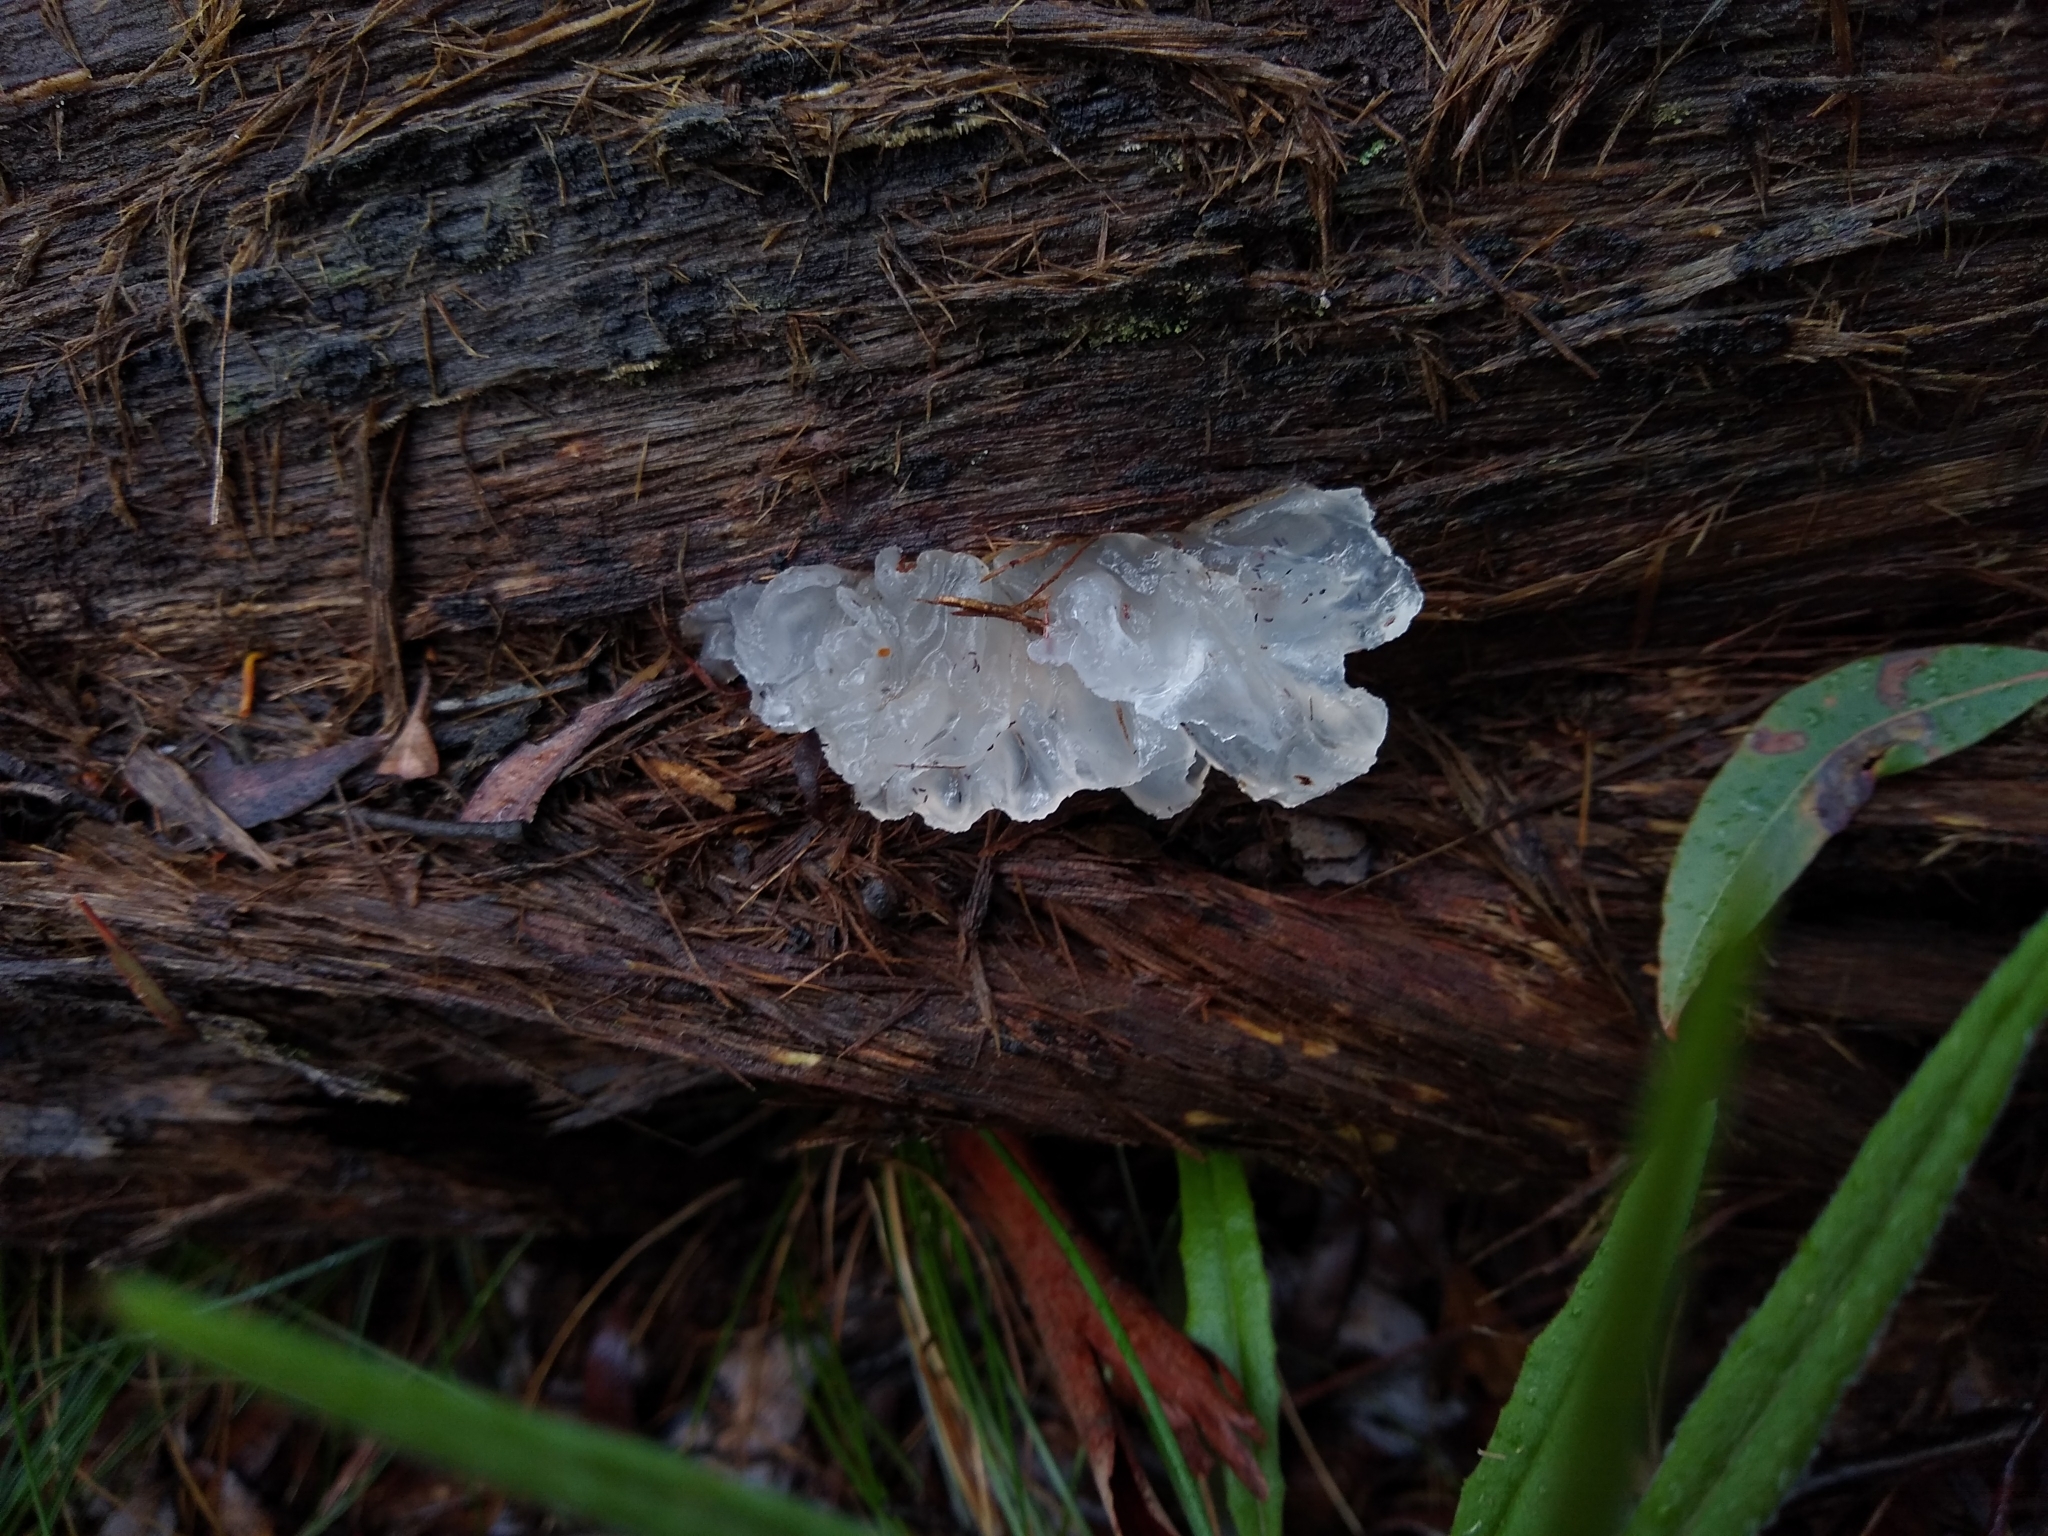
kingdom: Fungi
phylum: Basidiomycota
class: Tremellomycetes
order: Tremellales
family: Tremellaceae
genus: Tremella
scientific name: Tremella fuciformis
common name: Snow fungus
